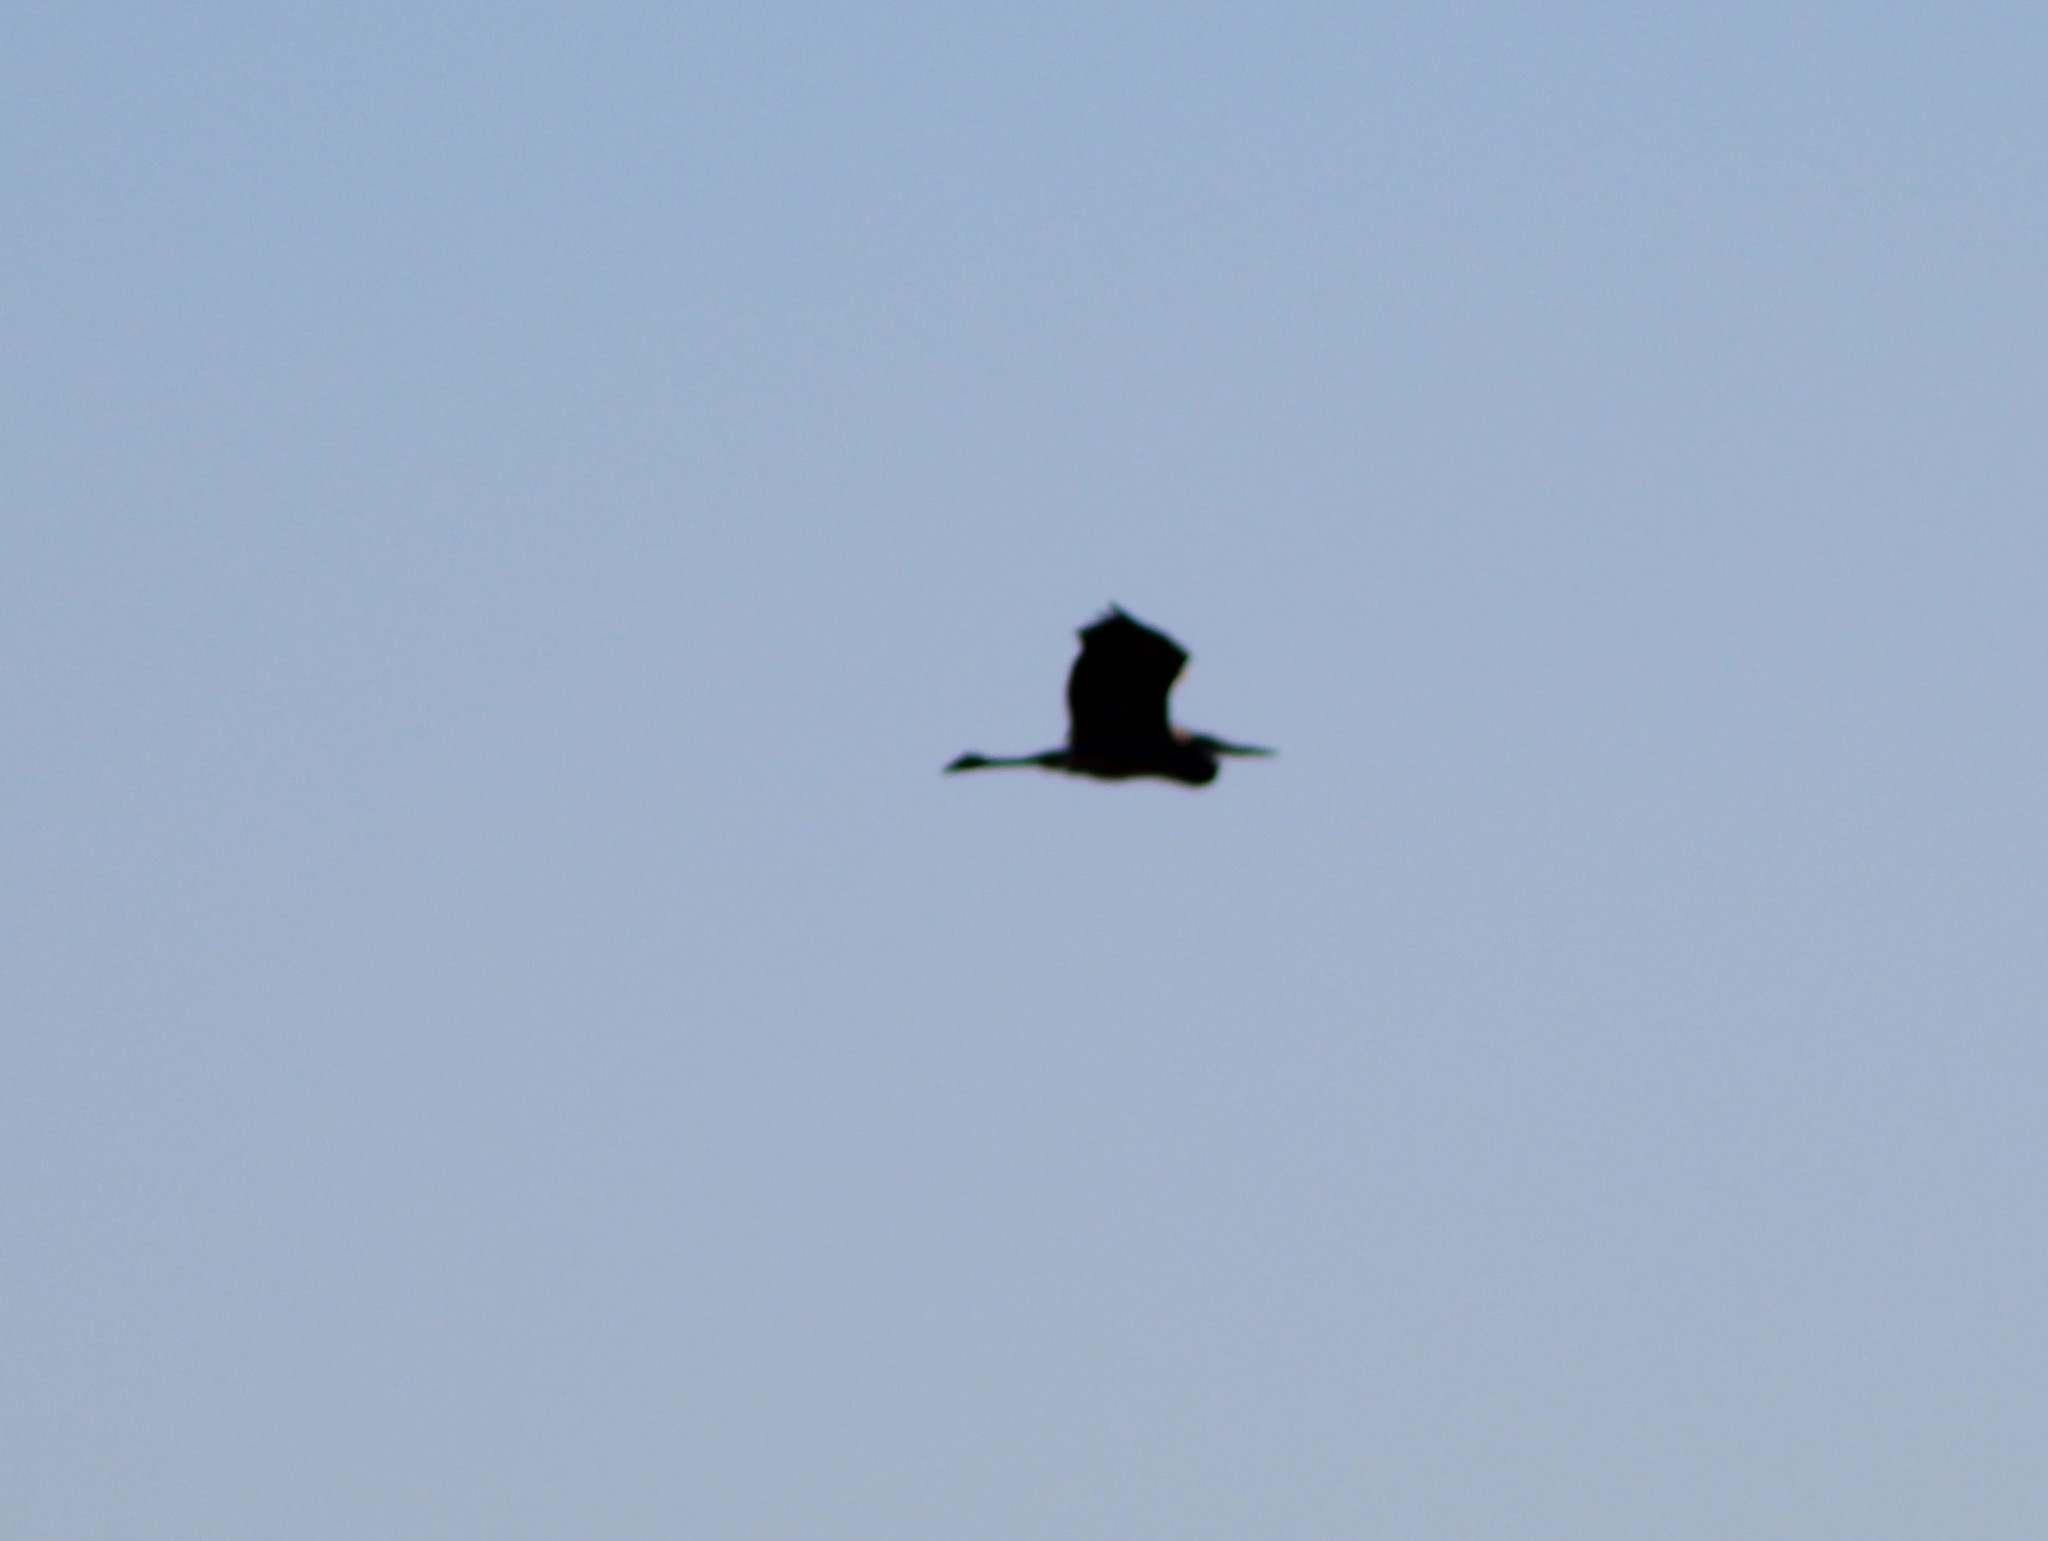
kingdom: Animalia
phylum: Chordata
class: Aves
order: Pelecaniformes
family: Ardeidae
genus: Ardea
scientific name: Ardea herodias
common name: Great blue heron
